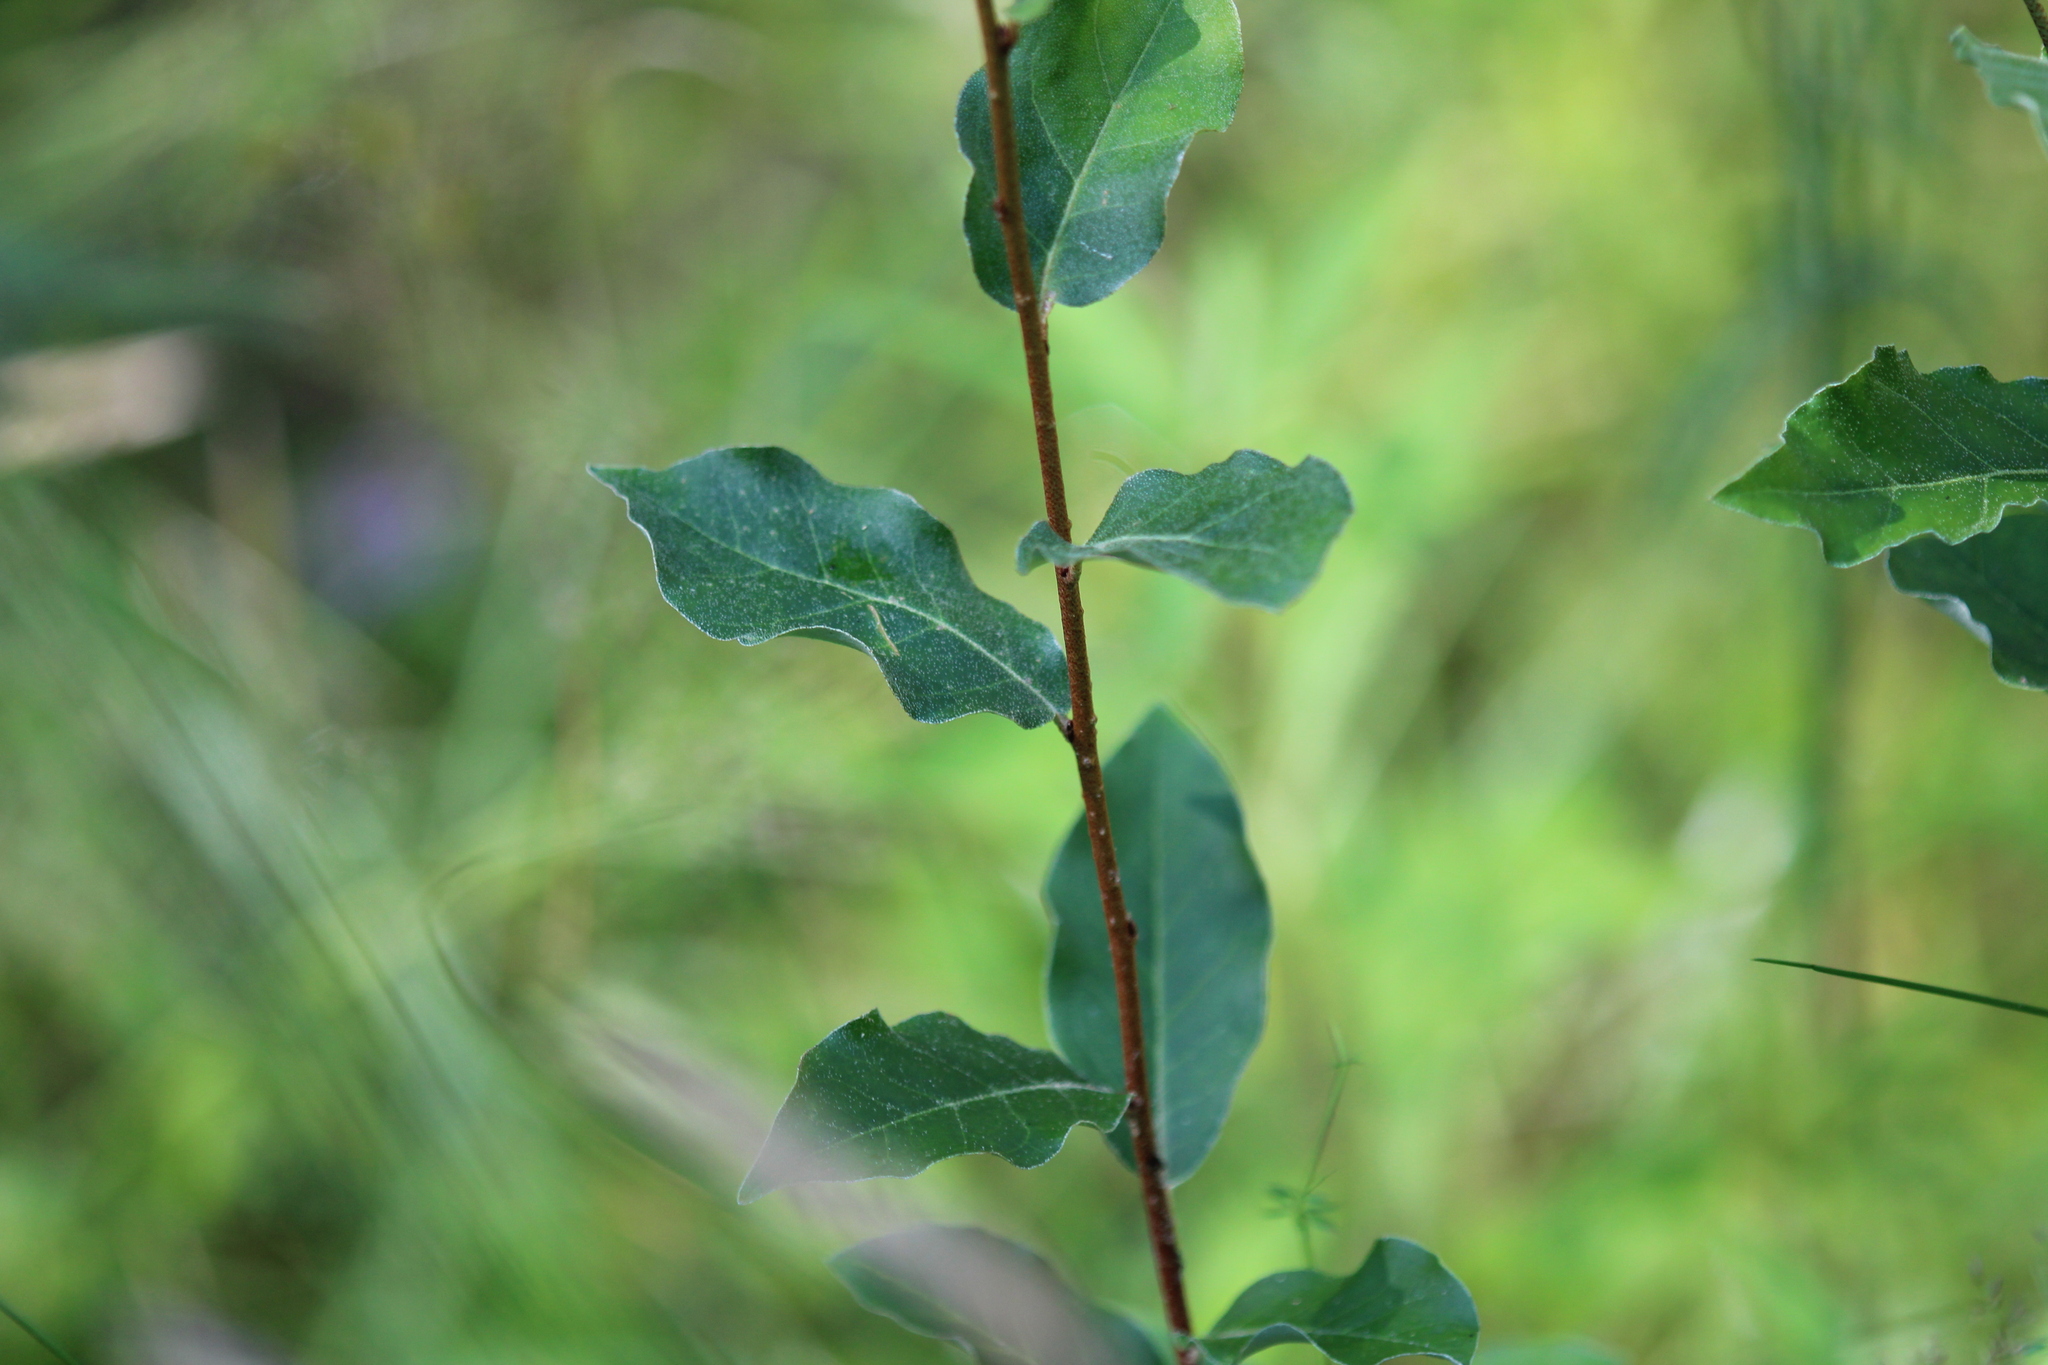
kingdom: Plantae
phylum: Tracheophyta
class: Magnoliopsida
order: Rosales
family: Elaeagnaceae
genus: Elaeagnus
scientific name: Elaeagnus umbellata
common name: Autumn olive
